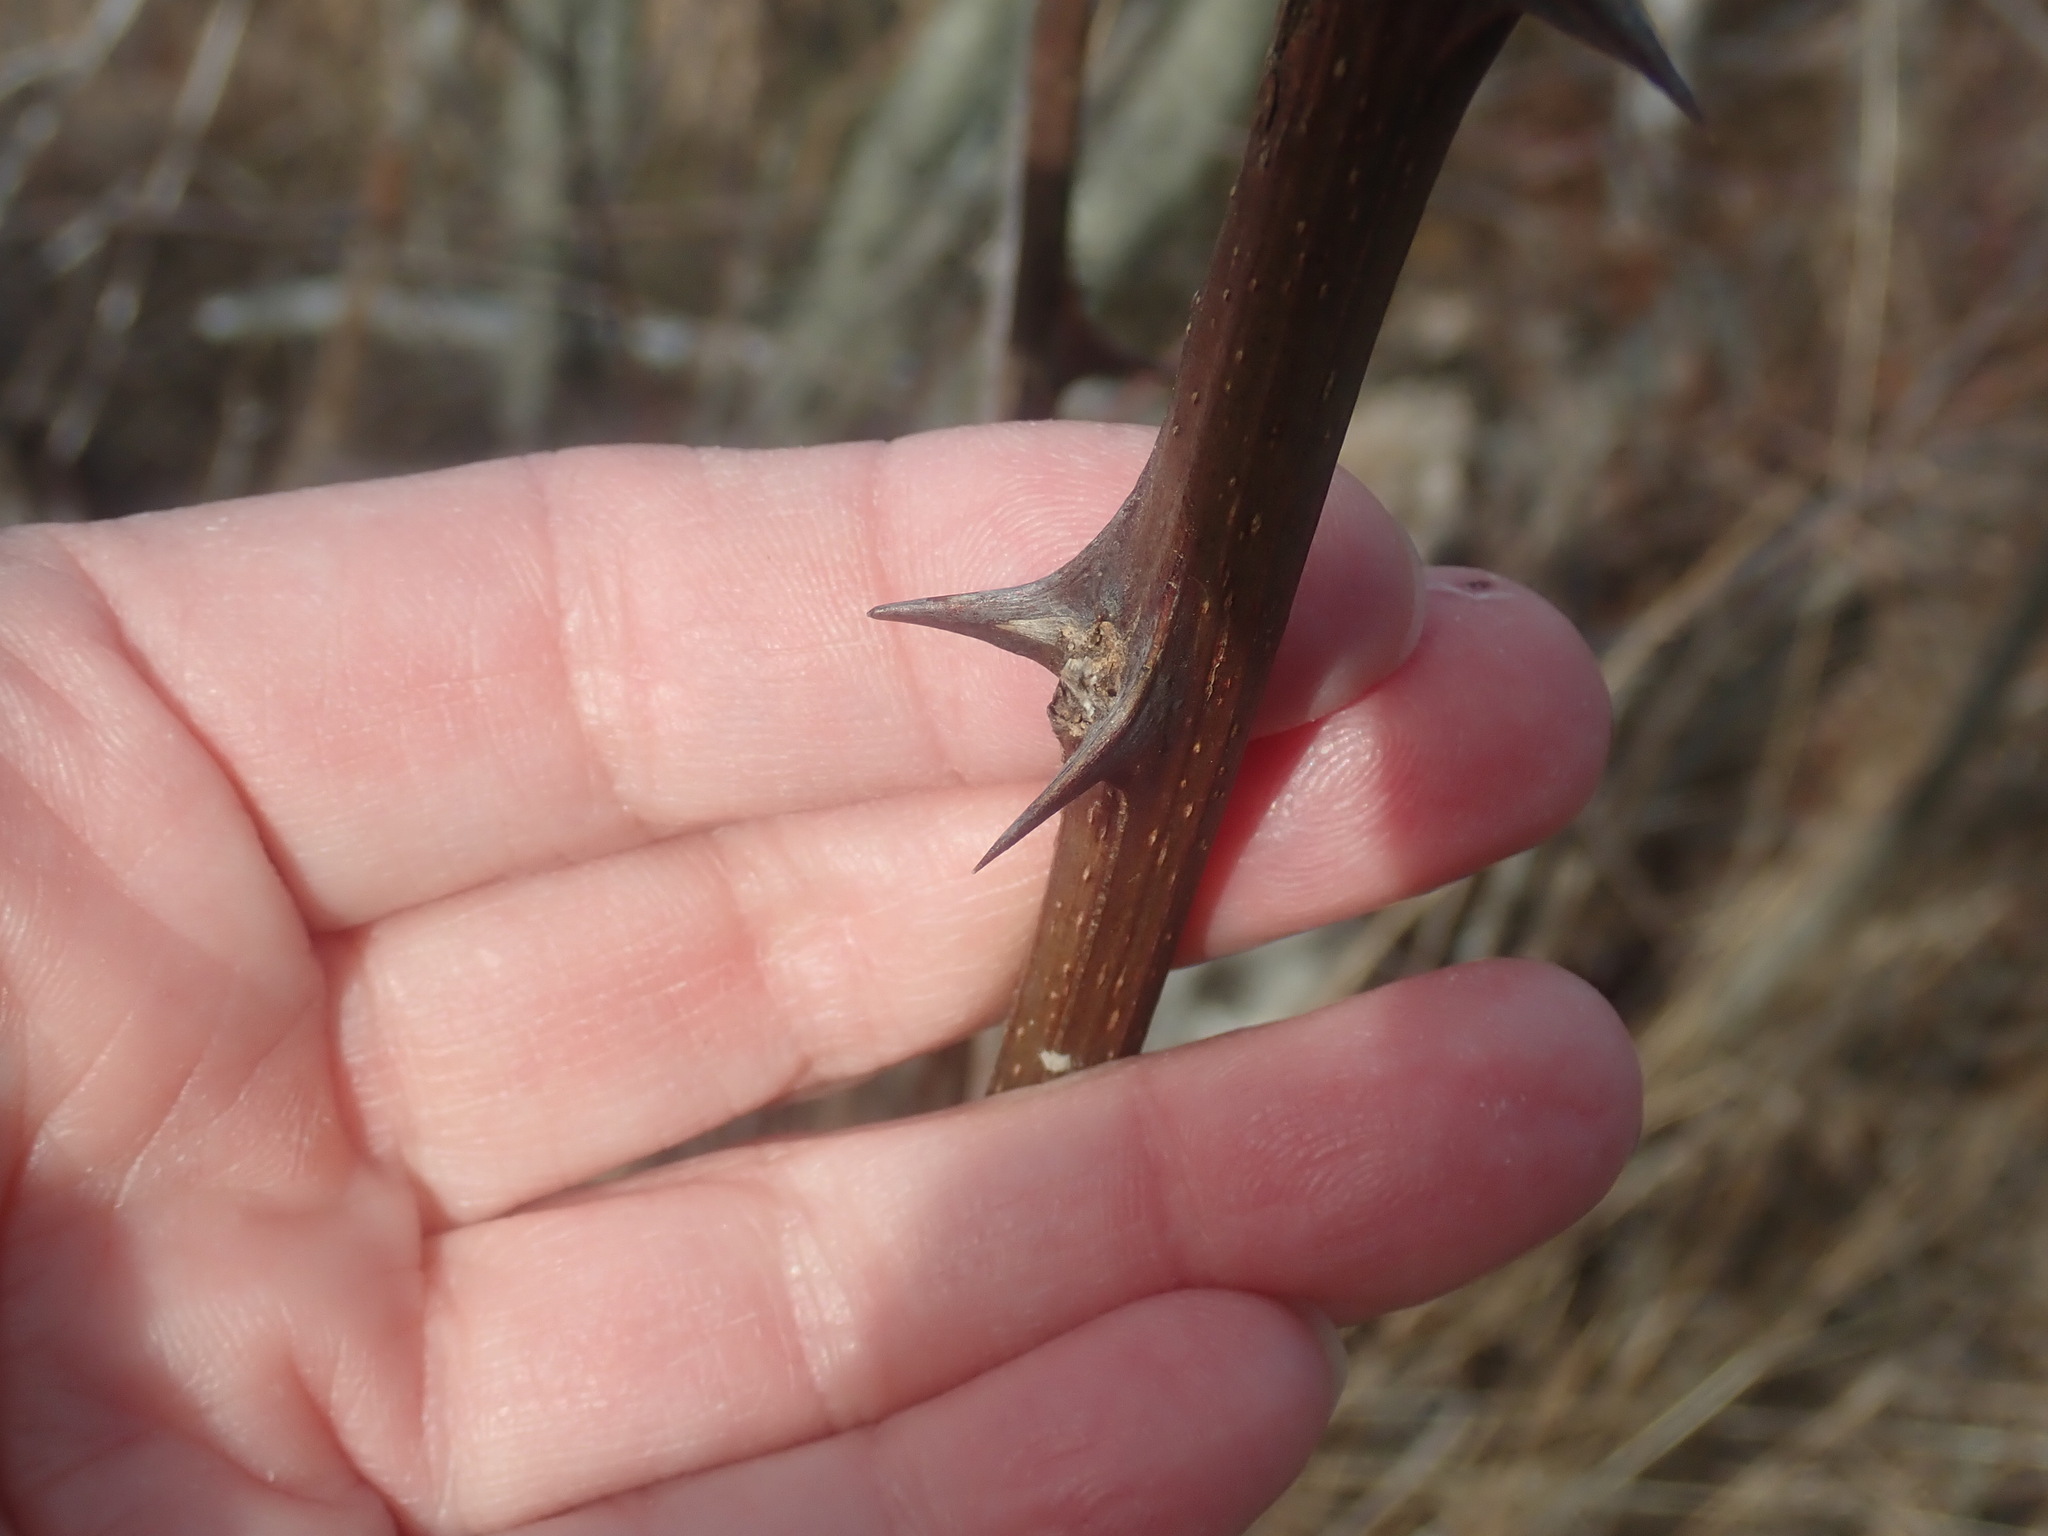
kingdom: Plantae
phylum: Tracheophyta
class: Magnoliopsida
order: Fabales
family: Fabaceae
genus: Robinia
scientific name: Robinia pseudoacacia
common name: Black locust
